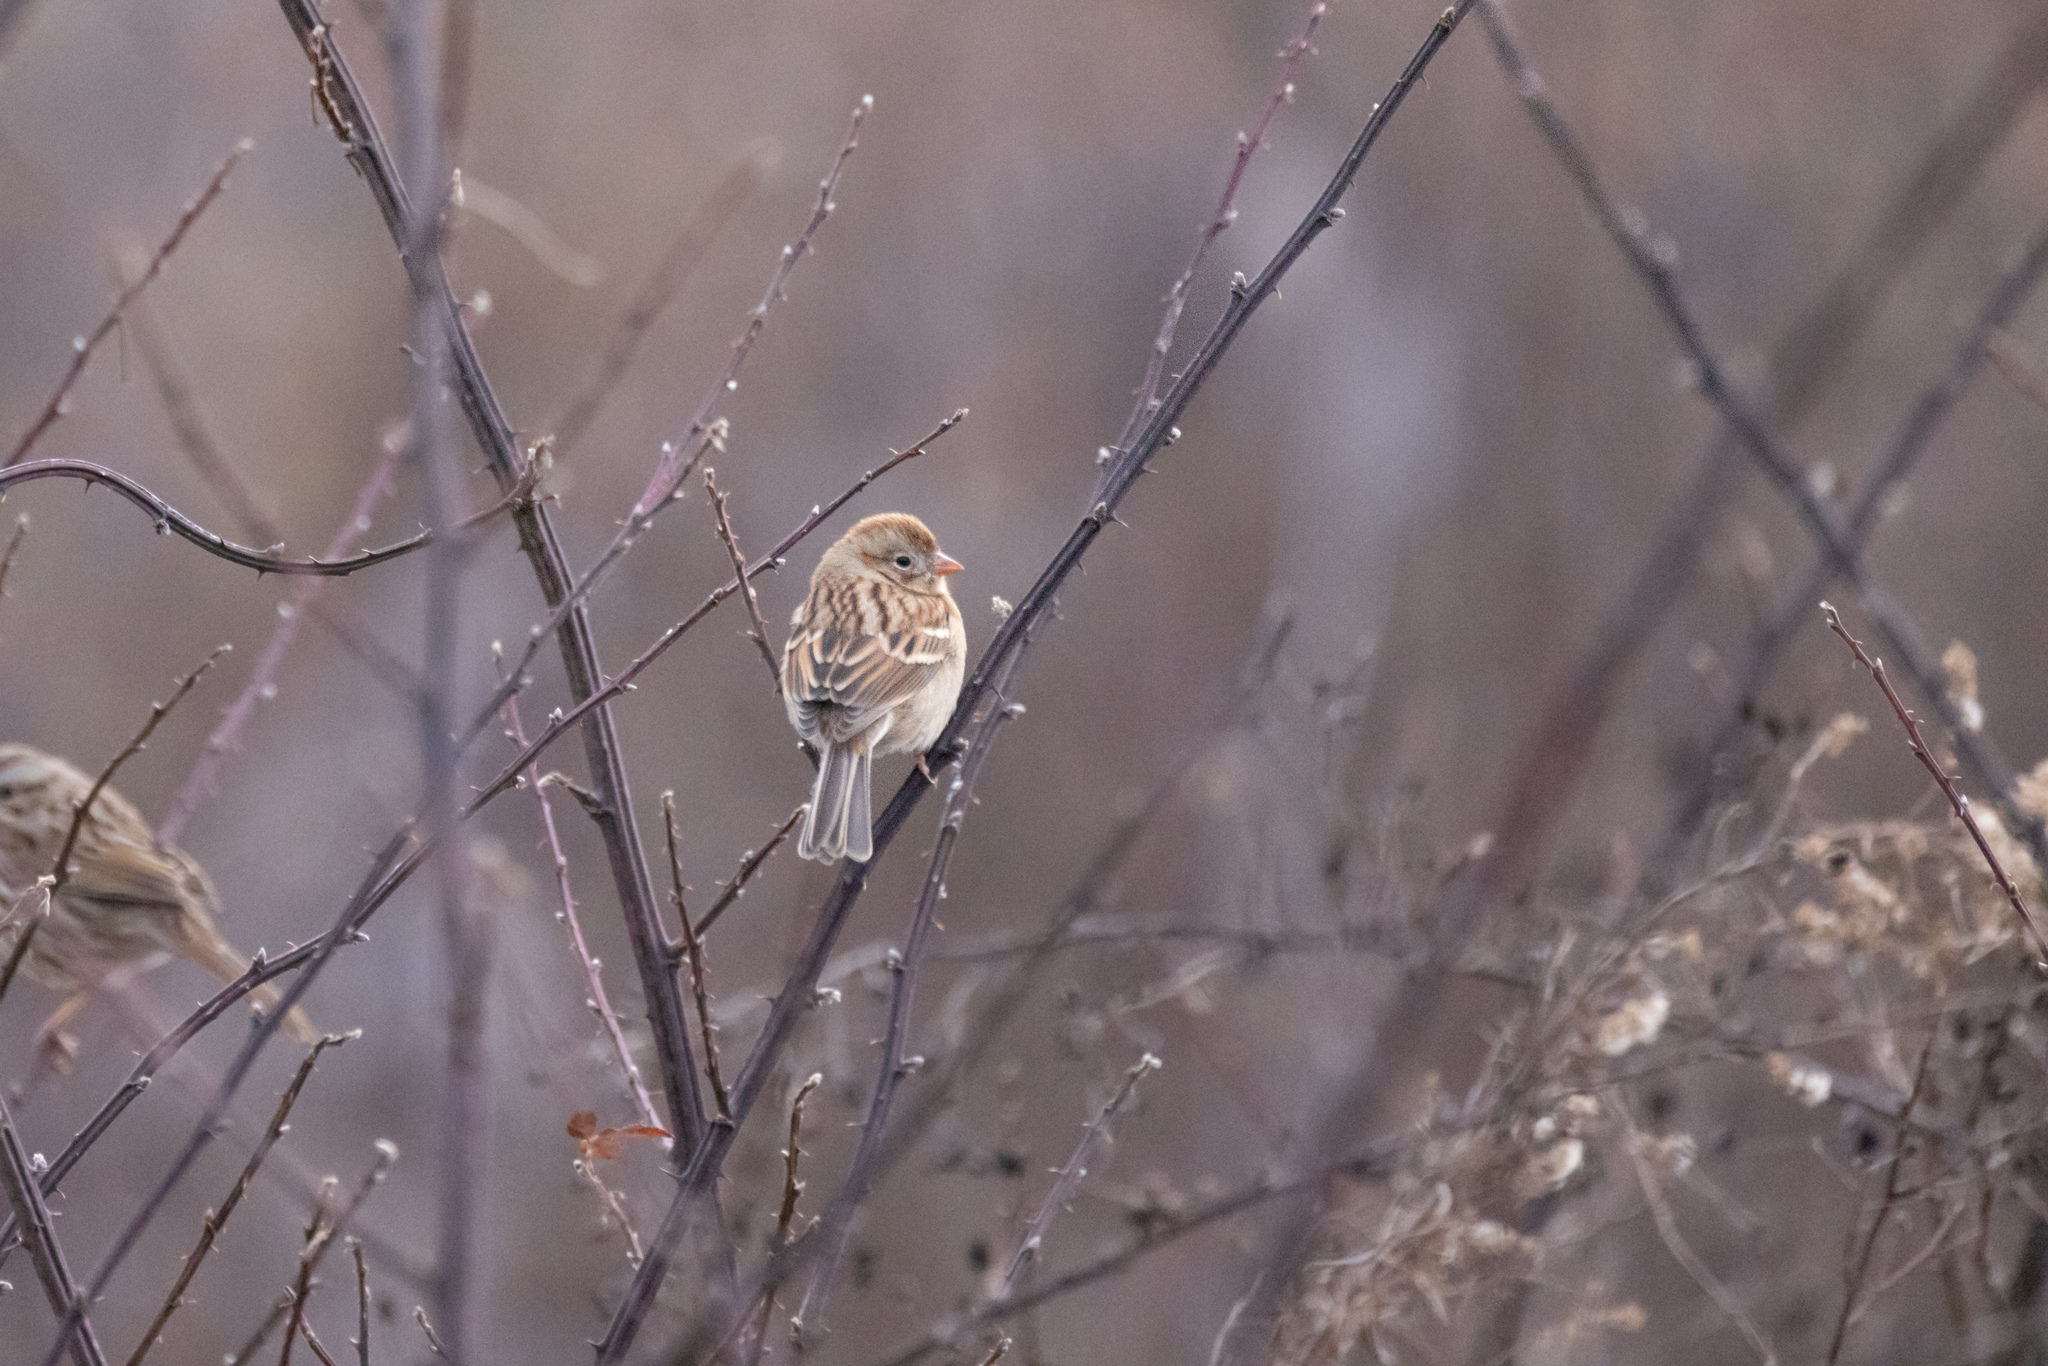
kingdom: Animalia
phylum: Chordata
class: Aves
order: Passeriformes
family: Passerellidae
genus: Spizella
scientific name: Spizella pusilla
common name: Field sparrow
